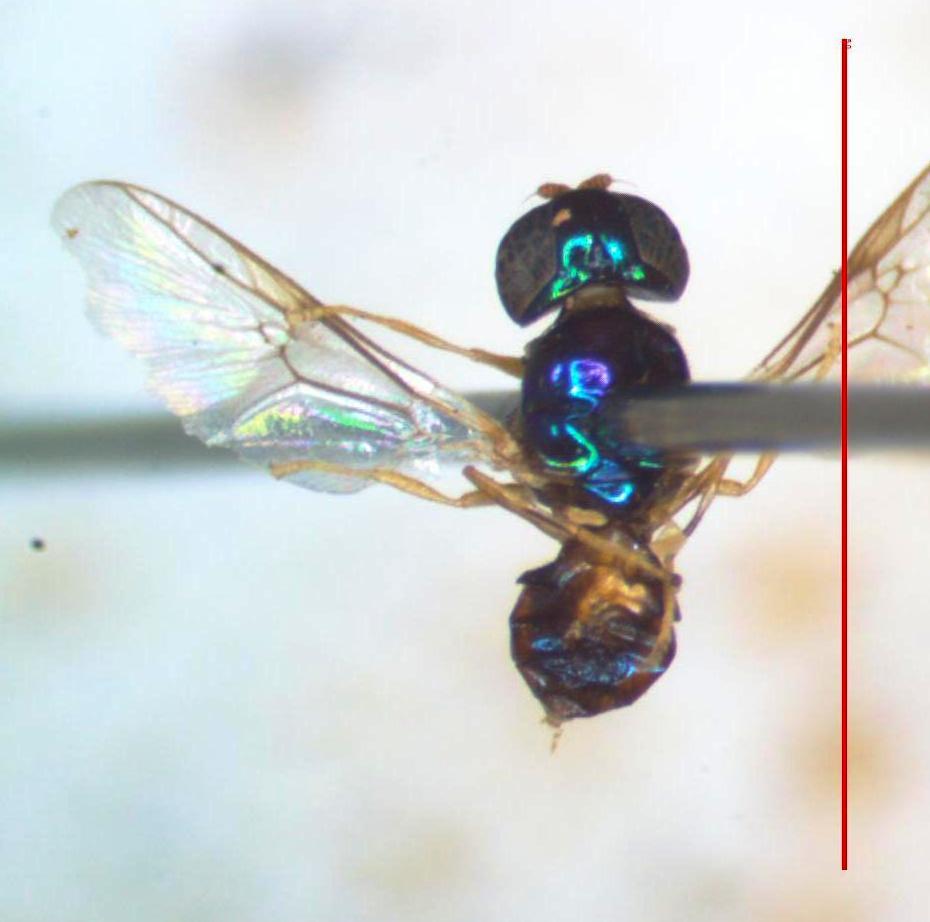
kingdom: Animalia
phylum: Arthropoda
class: Insecta
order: Diptera
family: Stratiomyidae
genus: Microchrysa
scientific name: Microchrysa bicolor
